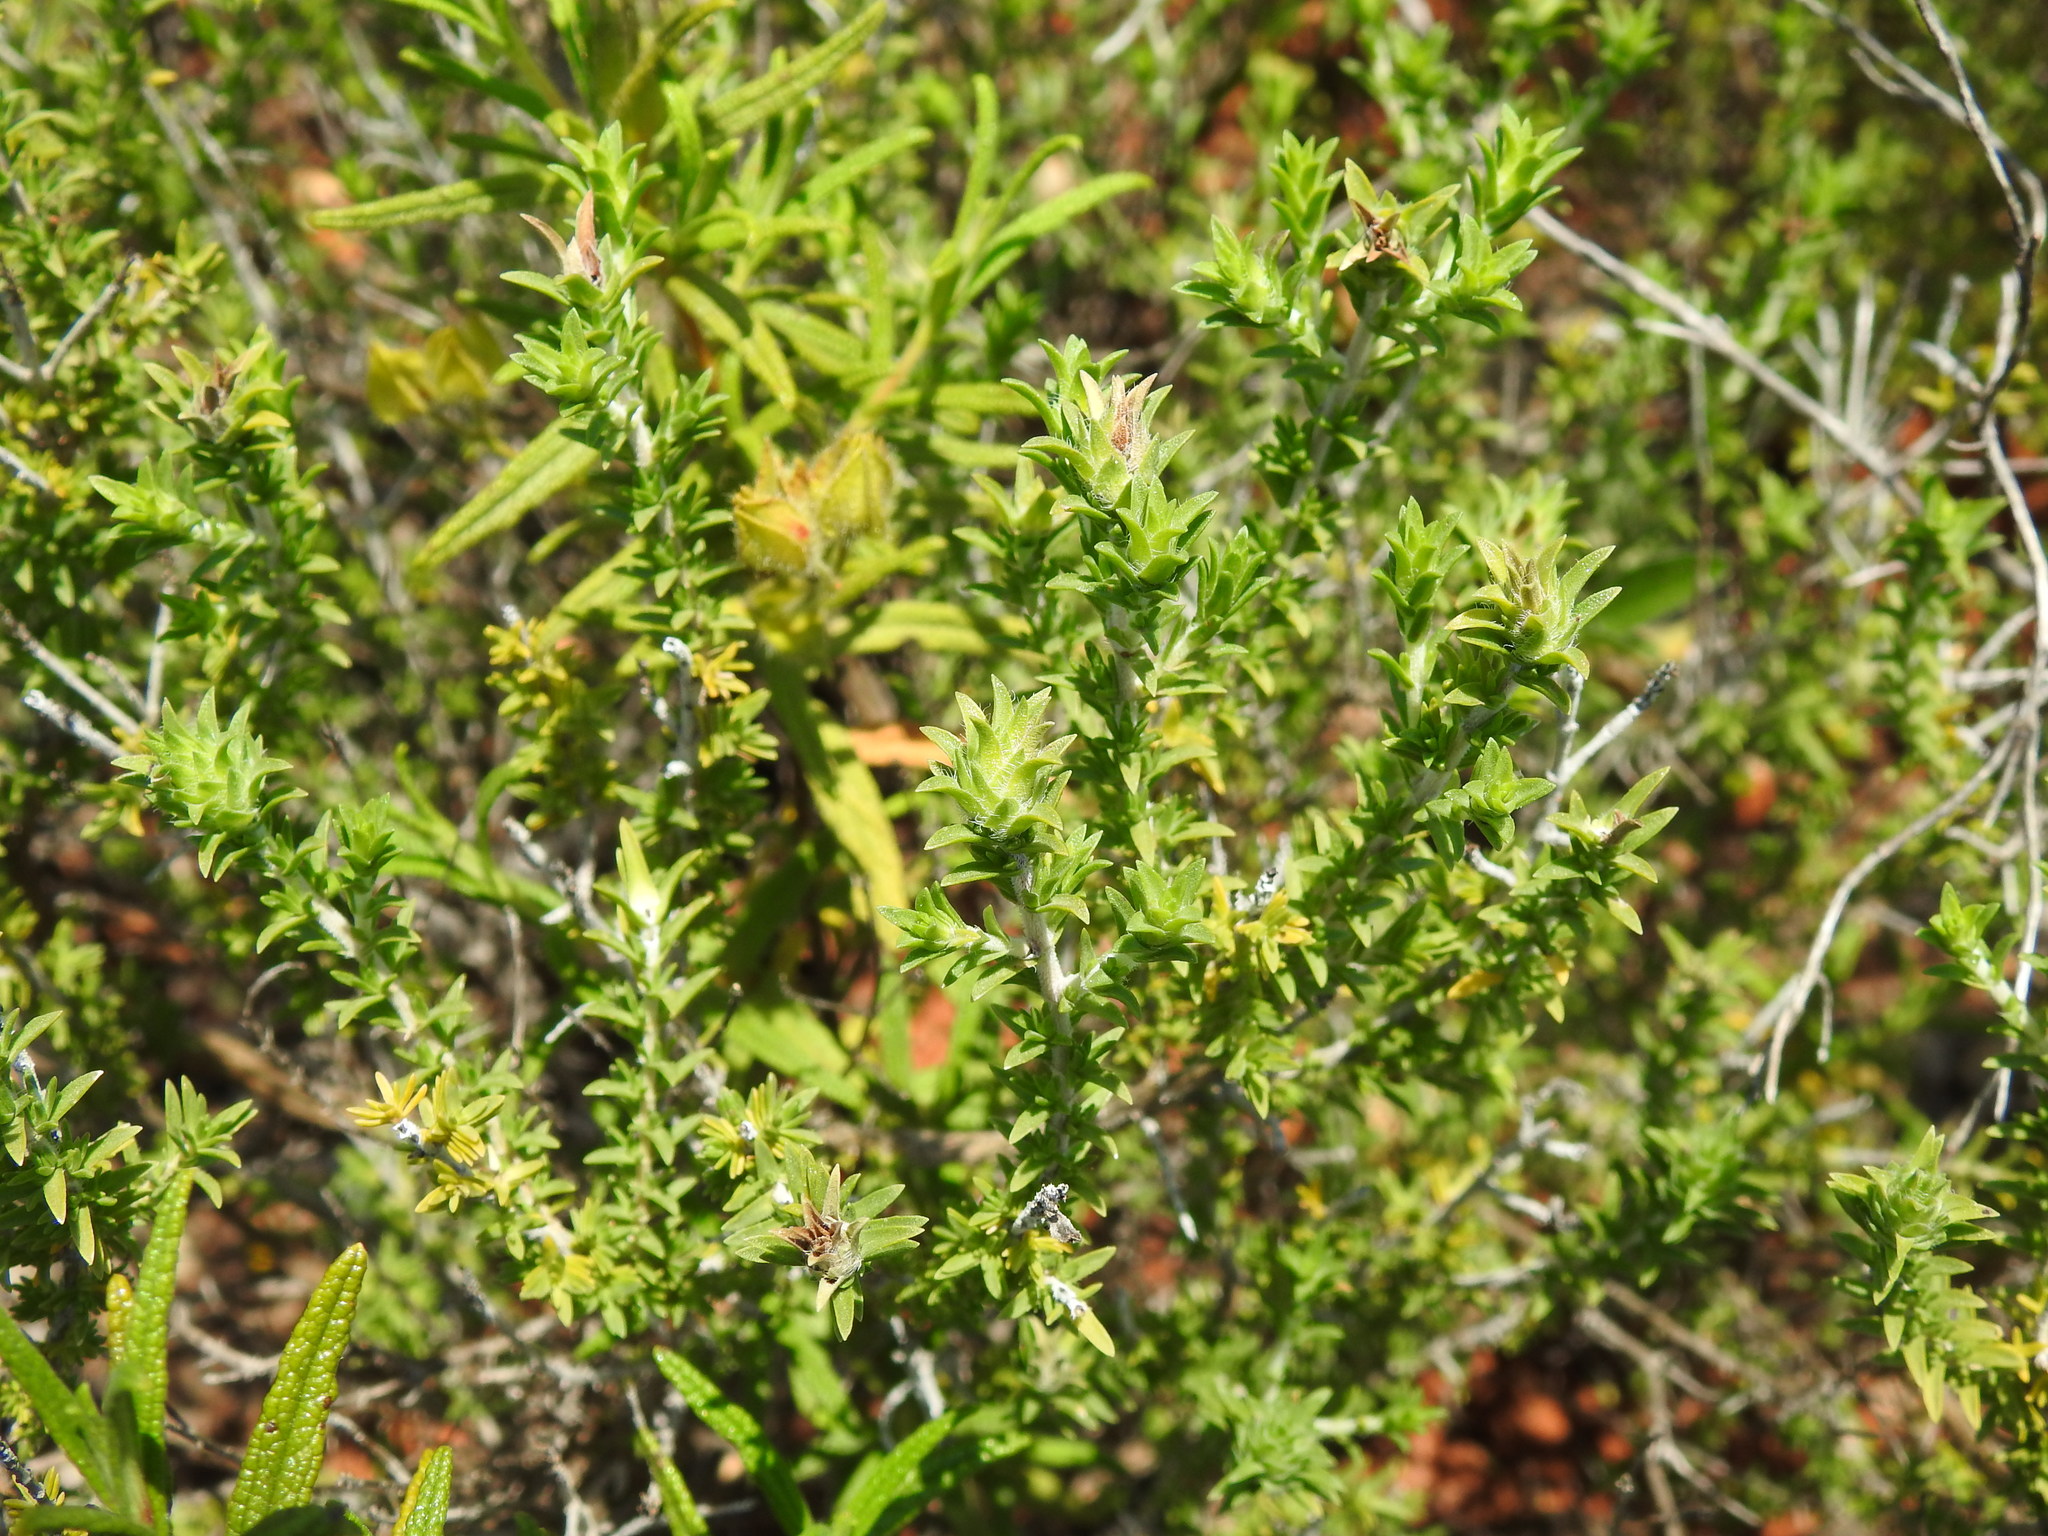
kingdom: Plantae
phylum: Tracheophyta
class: Magnoliopsida
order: Lamiales
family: Lamiaceae
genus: Thymbra
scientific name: Thymbra capitata
